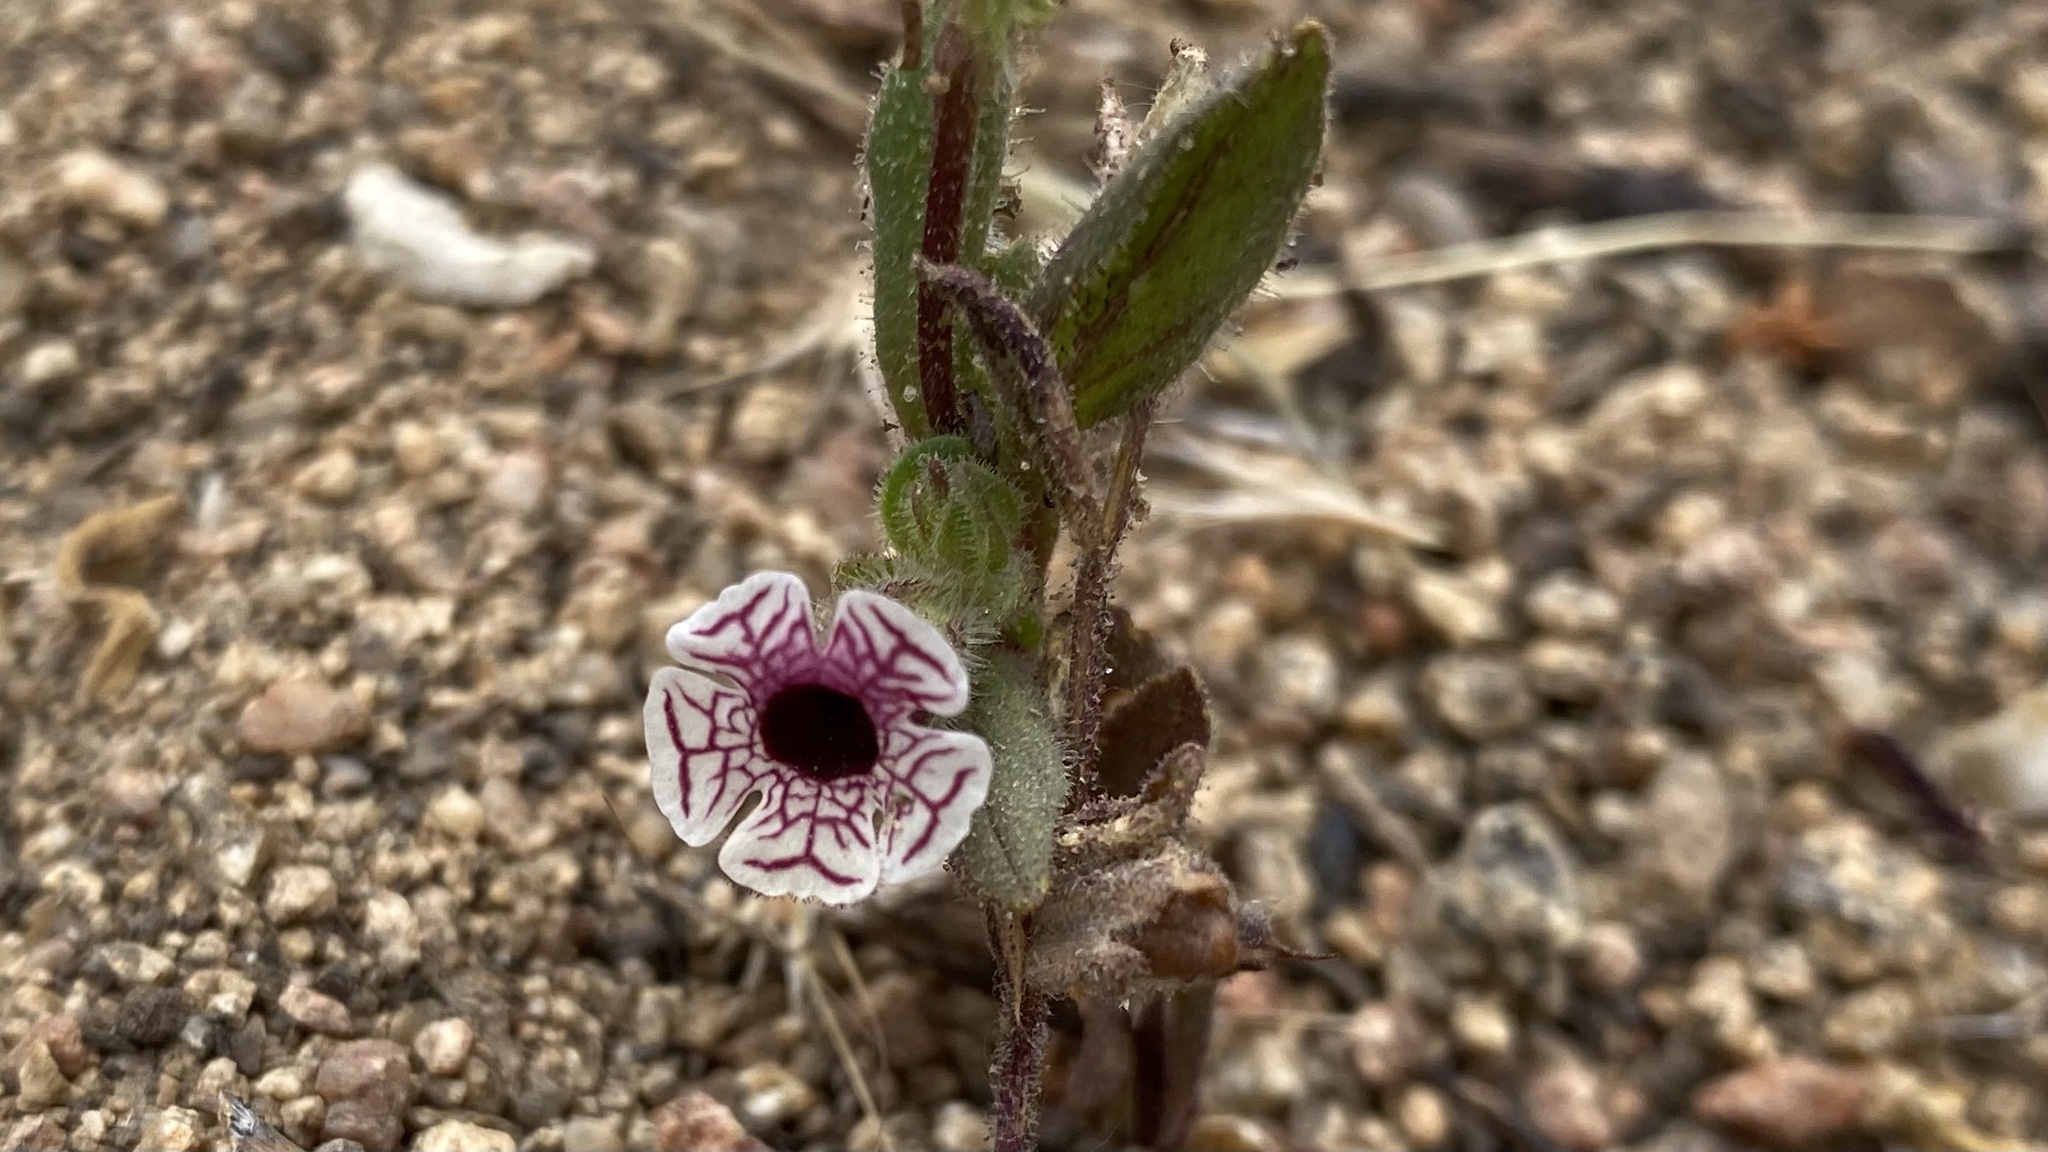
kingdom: Plantae
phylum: Tracheophyta
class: Magnoliopsida
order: Lamiales
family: Phrymaceae
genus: Diplacus
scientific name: Diplacus pictus
